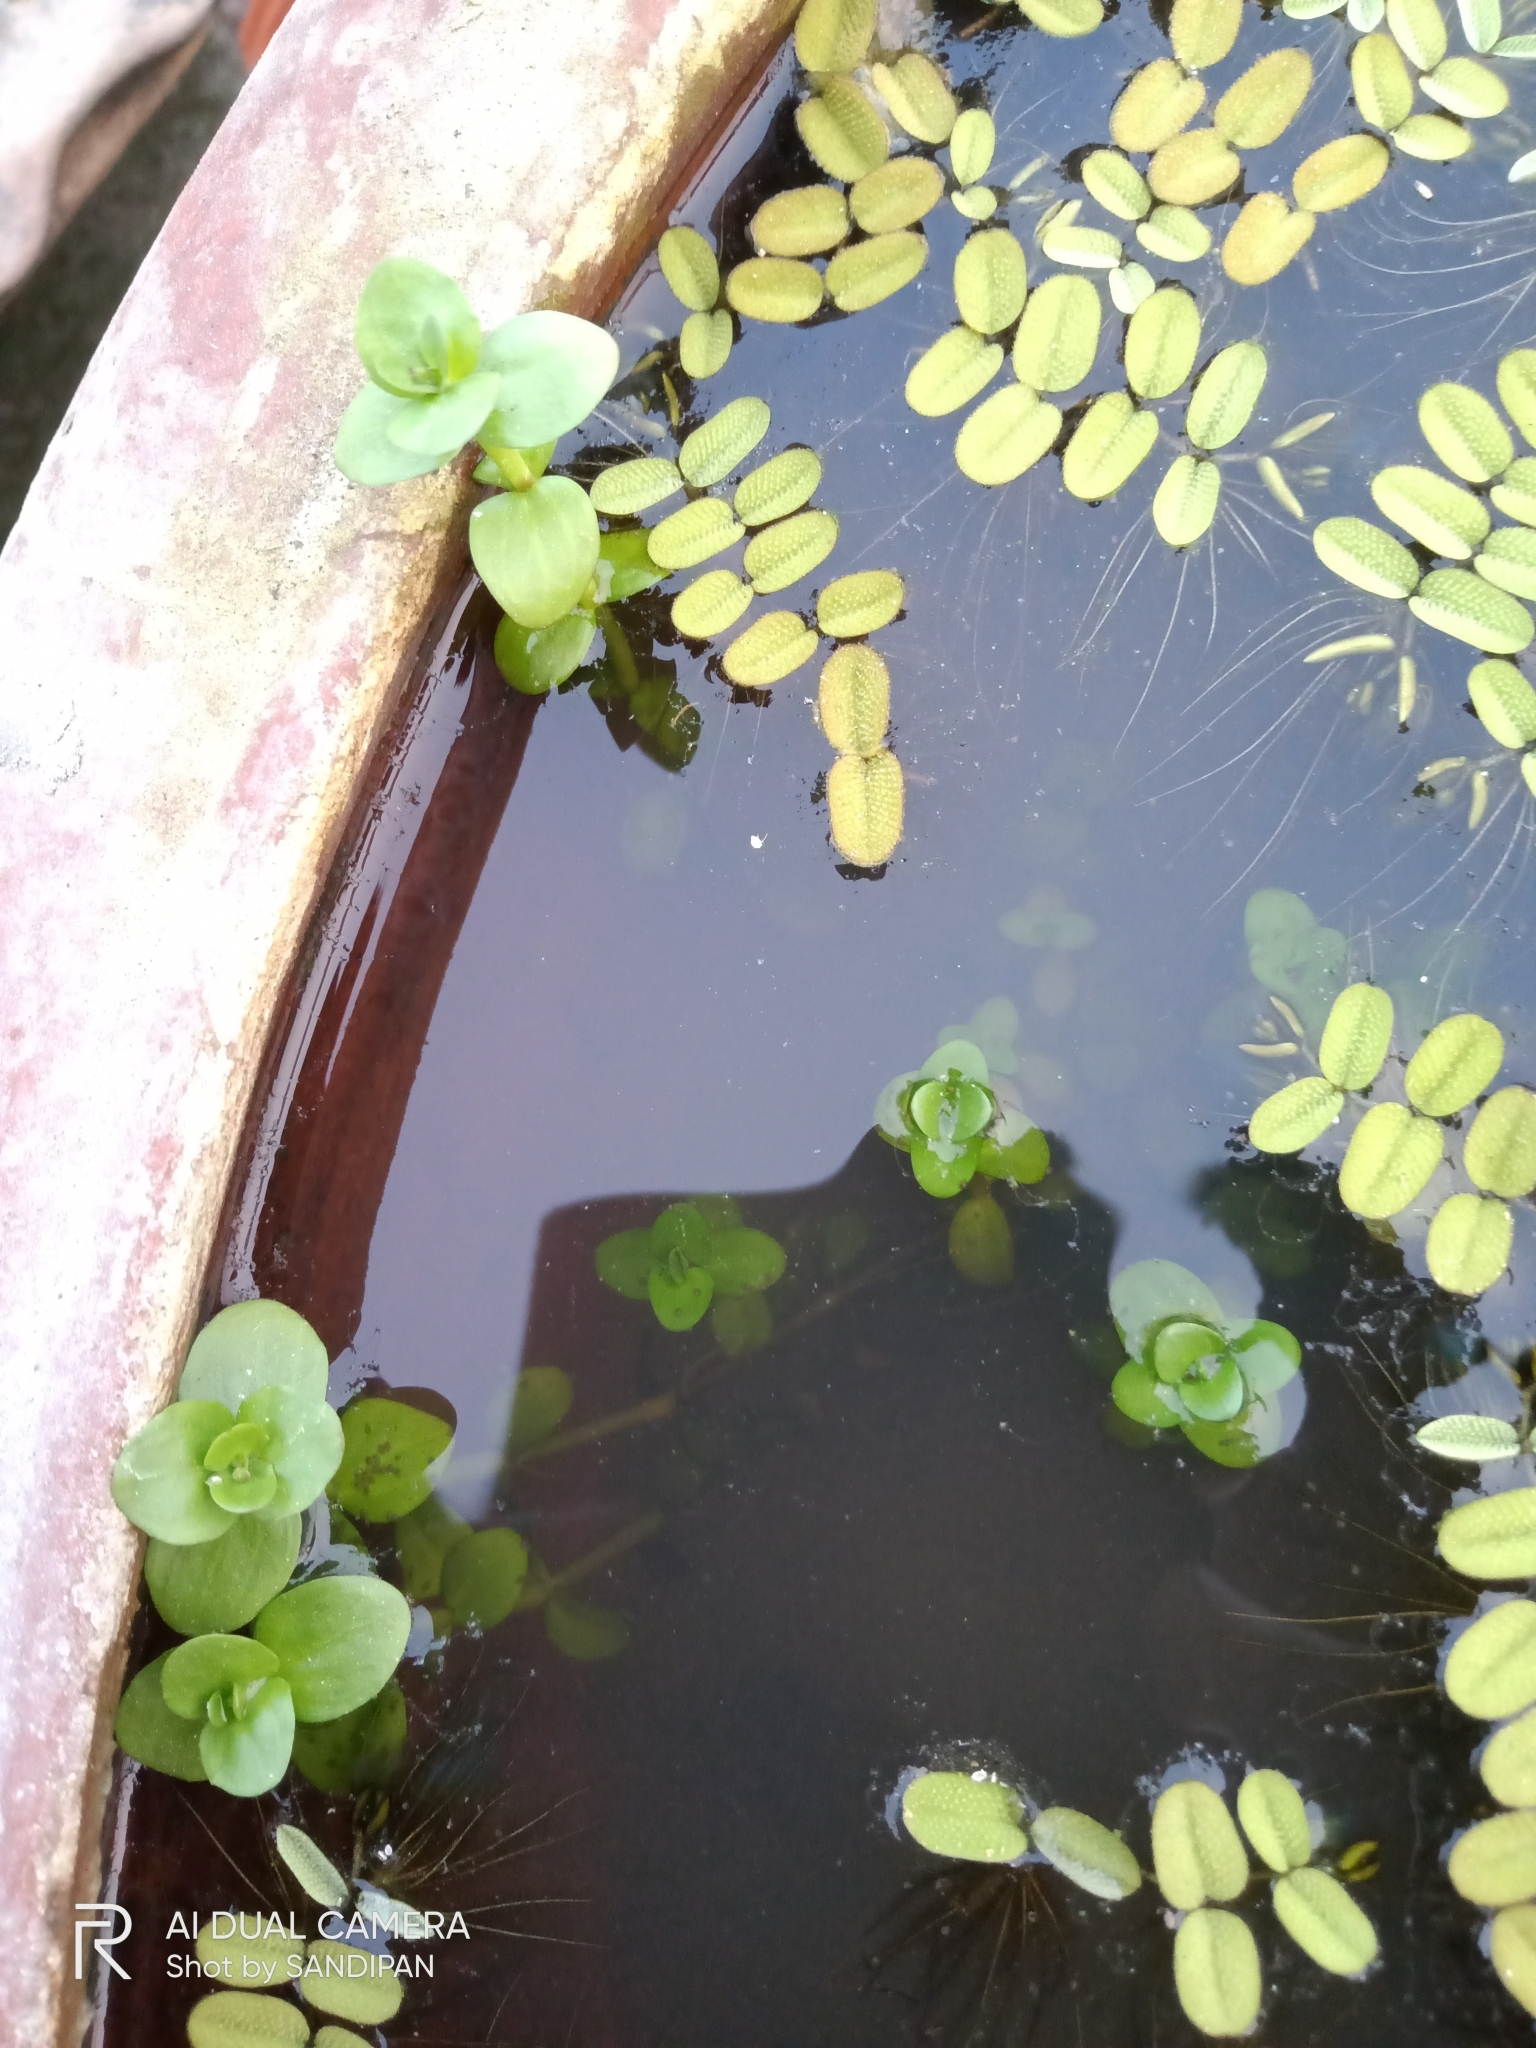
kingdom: Plantae
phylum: Tracheophyta
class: Magnoliopsida
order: Myrtales
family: Lythraceae
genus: Rotala
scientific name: Rotala rotundifolia
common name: Roundleaf toothcup
